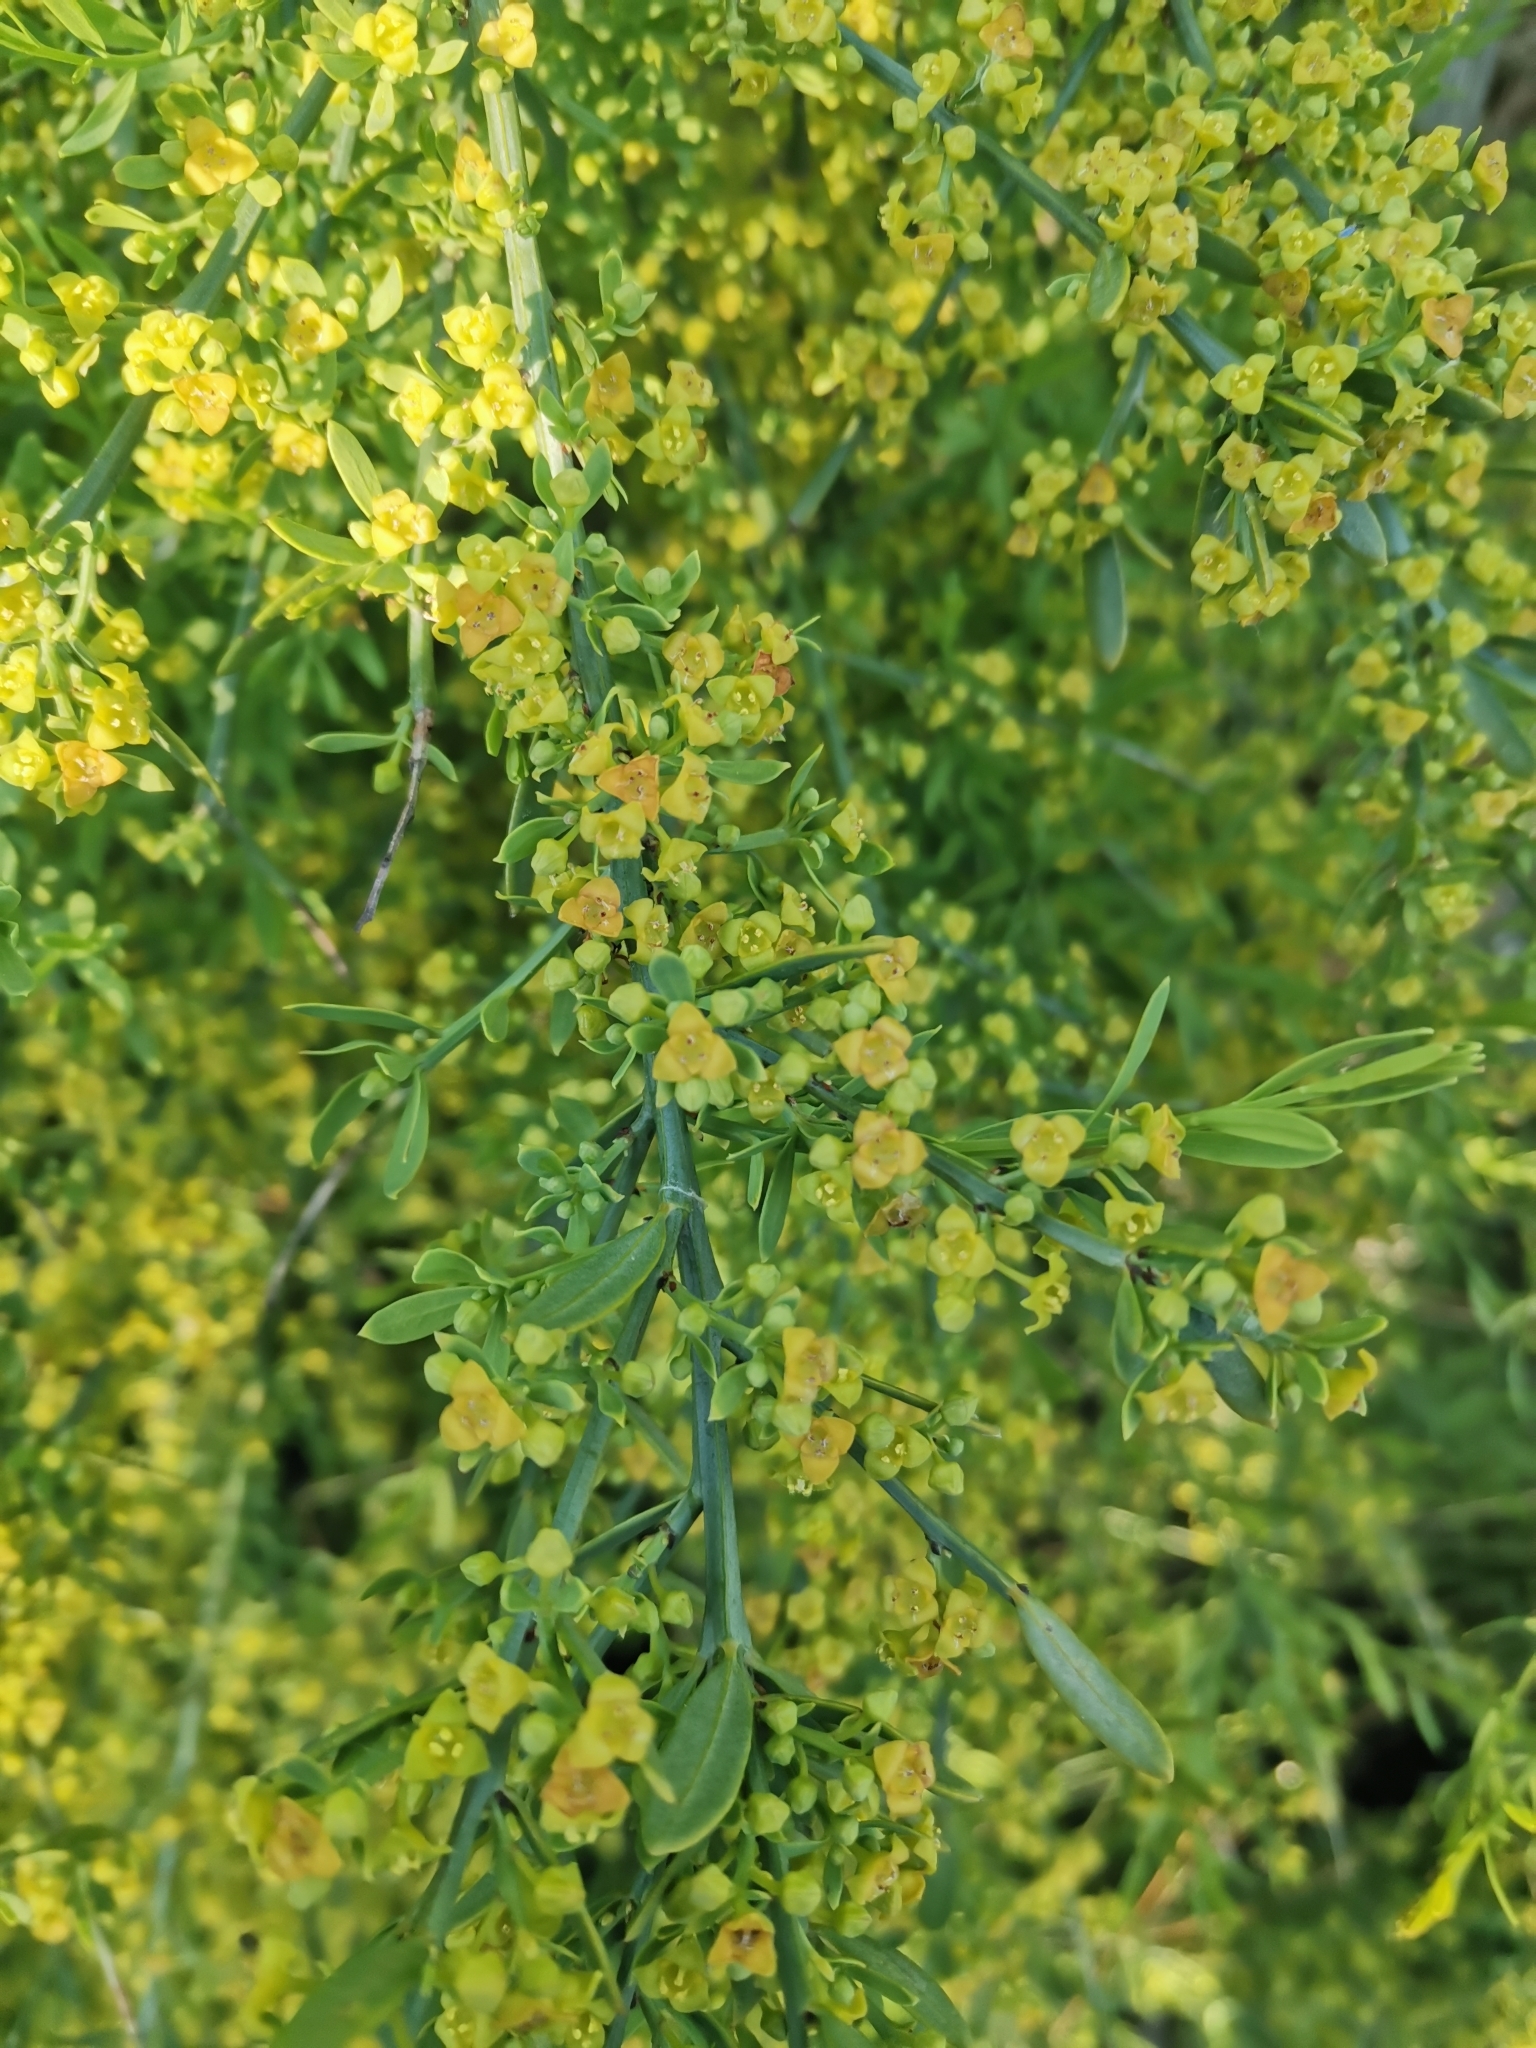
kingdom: Plantae
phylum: Tracheophyta
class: Magnoliopsida
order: Santalales
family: Santalaceae
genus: Osyris
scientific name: Osyris alba
